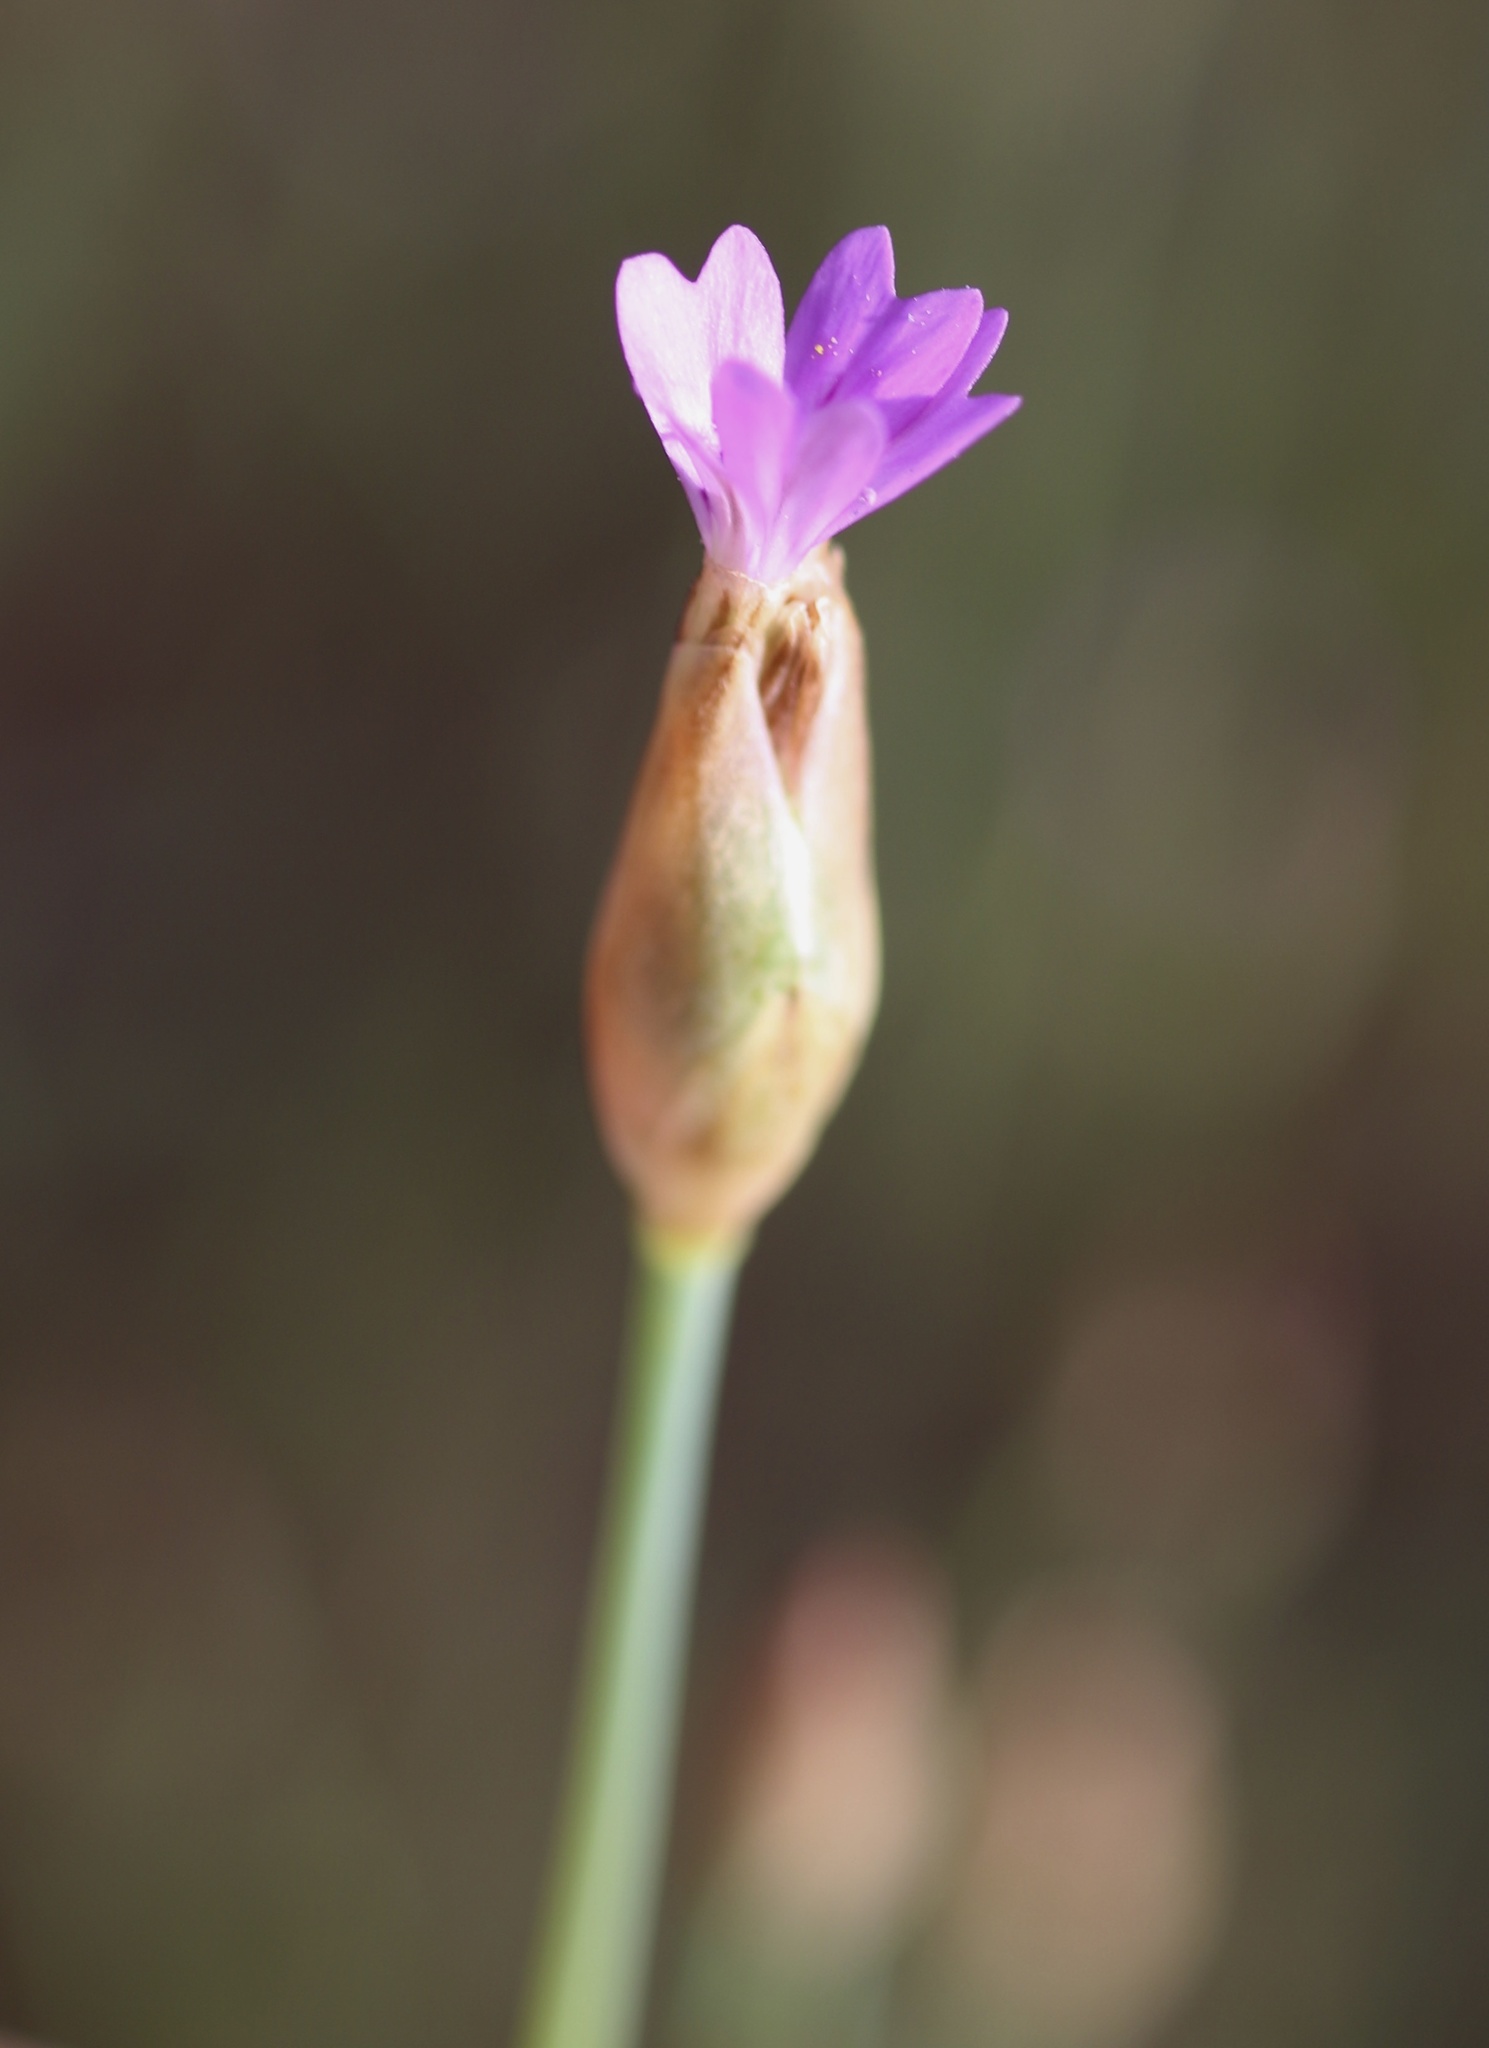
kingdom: Plantae
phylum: Tracheophyta
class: Magnoliopsida
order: Caryophyllales
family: Caryophyllaceae
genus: Petrorhagia
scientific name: Petrorhagia nanteuilii
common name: Proliferous pink
